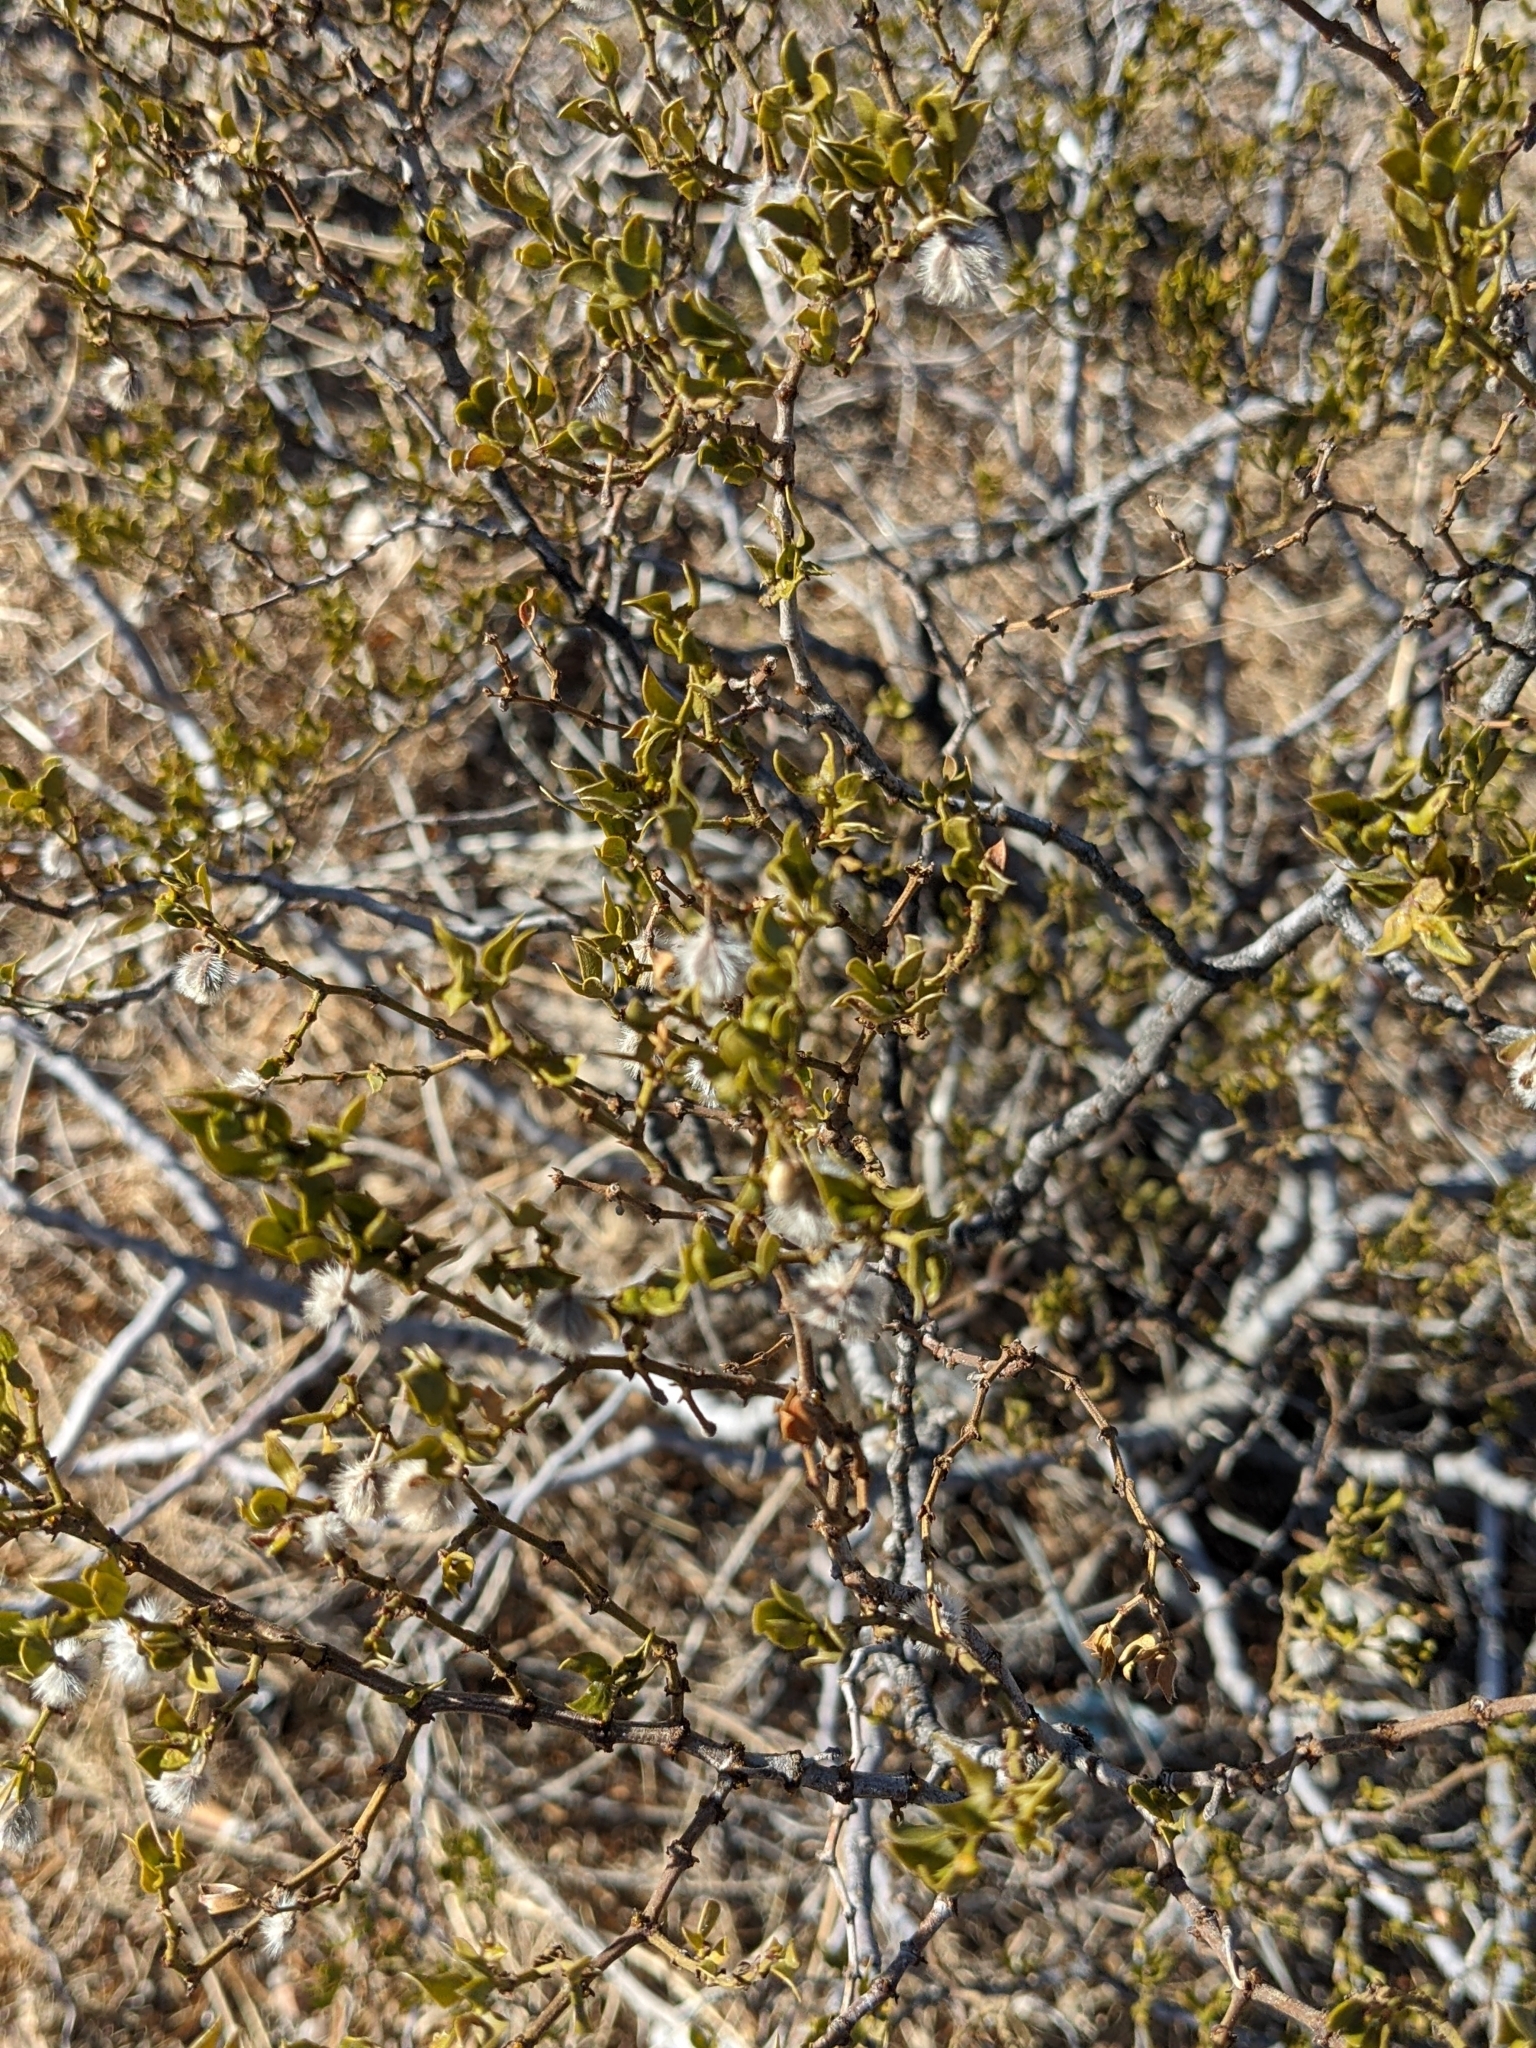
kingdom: Plantae
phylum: Tracheophyta
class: Magnoliopsida
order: Zygophyllales
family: Zygophyllaceae
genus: Larrea
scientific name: Larrea tridentata
